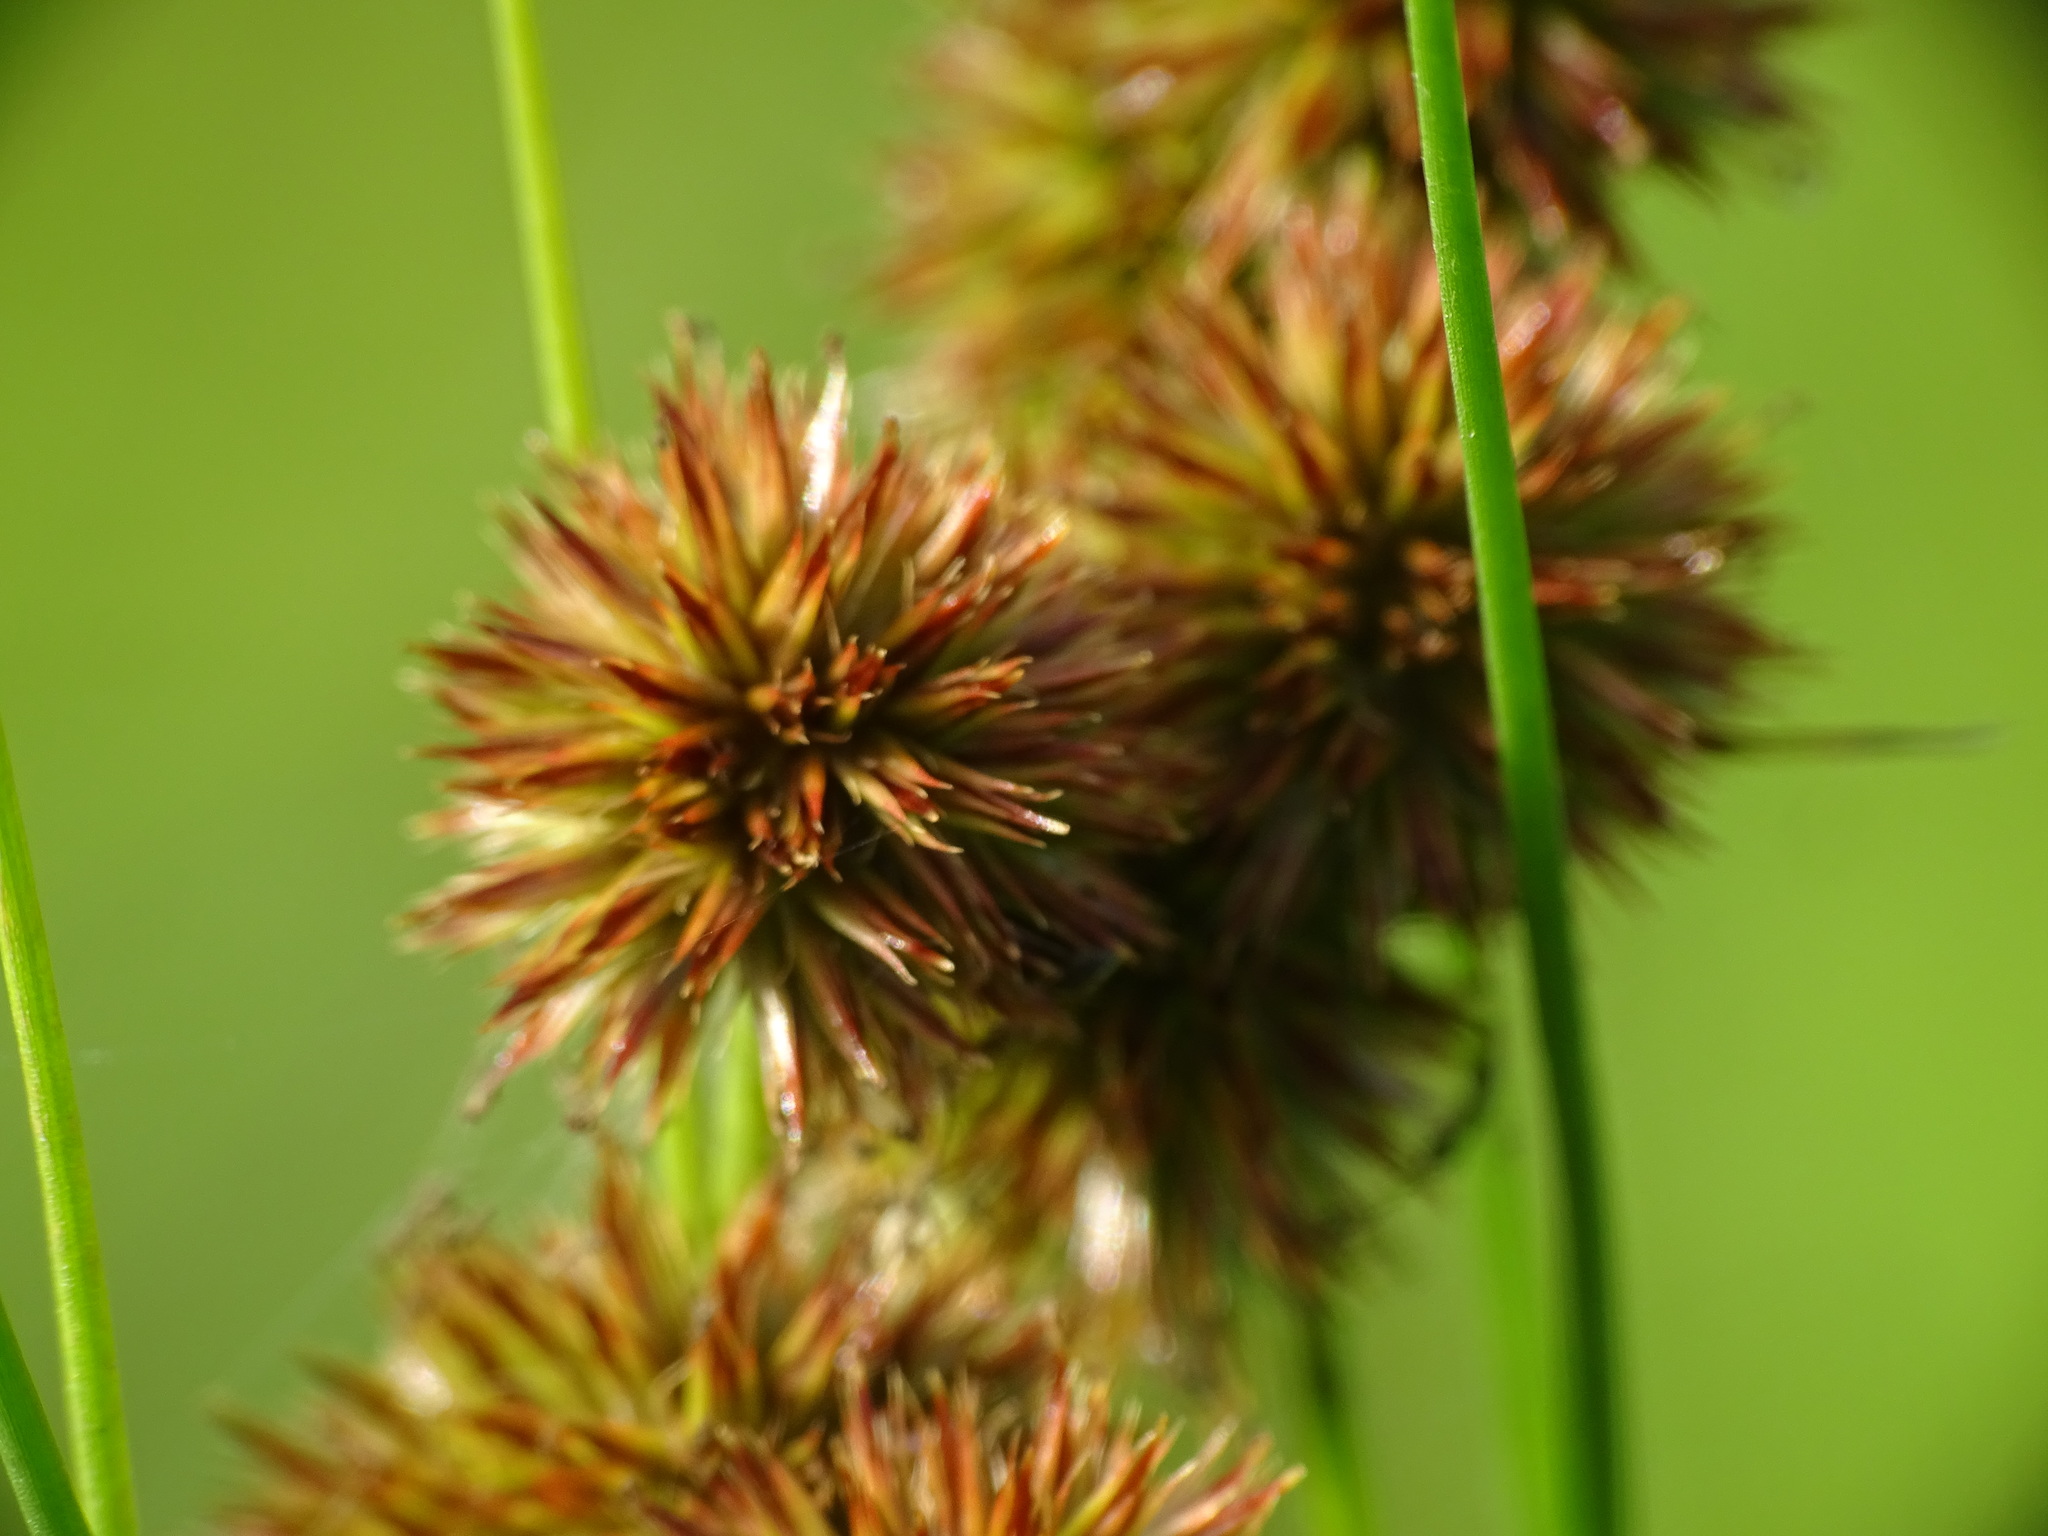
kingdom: Plantae
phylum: Tracheophyta
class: Liliopsida
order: Poales
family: Juncaceae
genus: Juncus
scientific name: Juncus torreyi
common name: Torrey's rush
